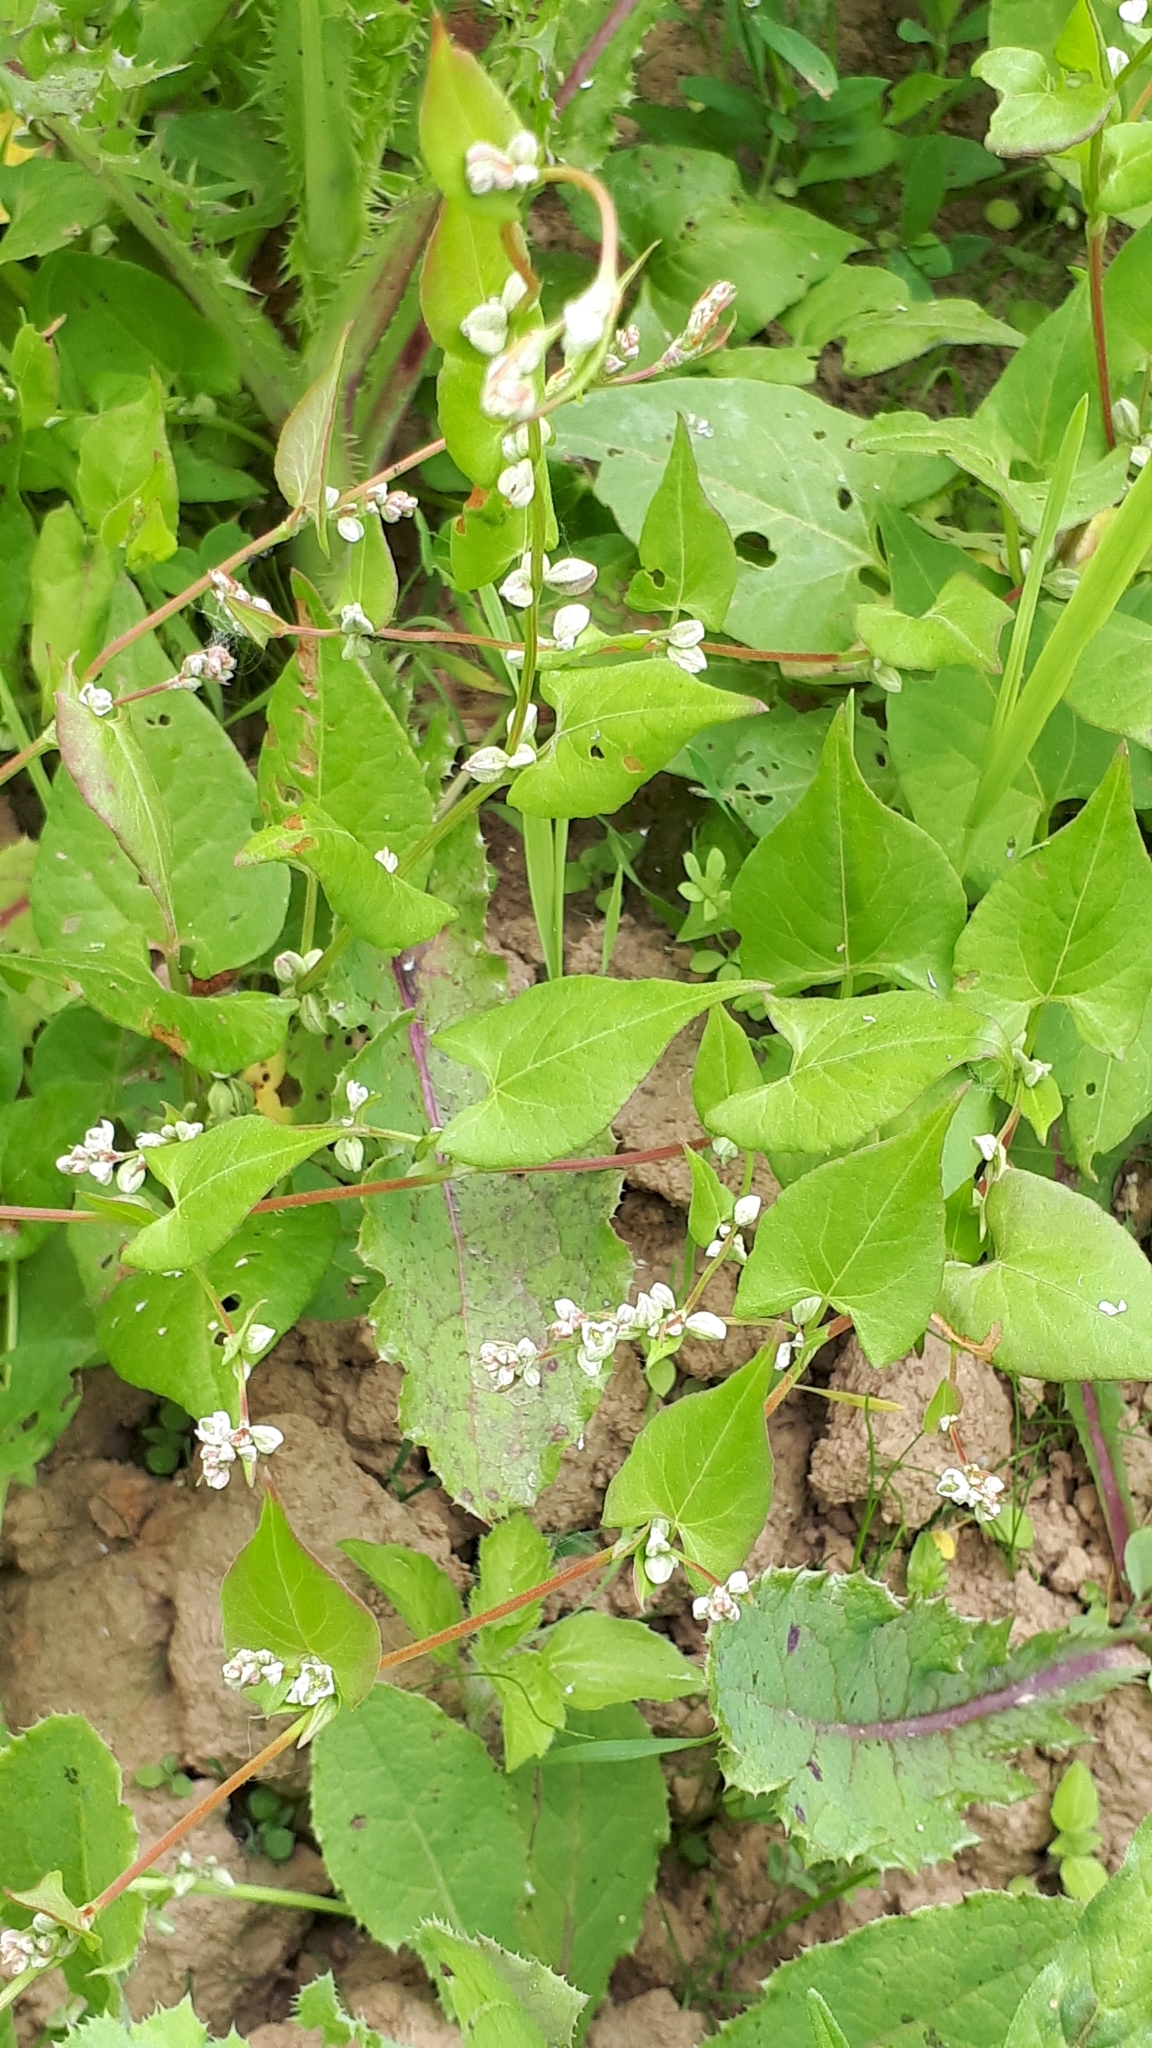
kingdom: Plantae
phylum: Tracheophyta
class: Magnoliopsida
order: Caryophyllales
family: Polygonaceae
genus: Fallopia
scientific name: Fallopia convolvulus
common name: Black bindweed
